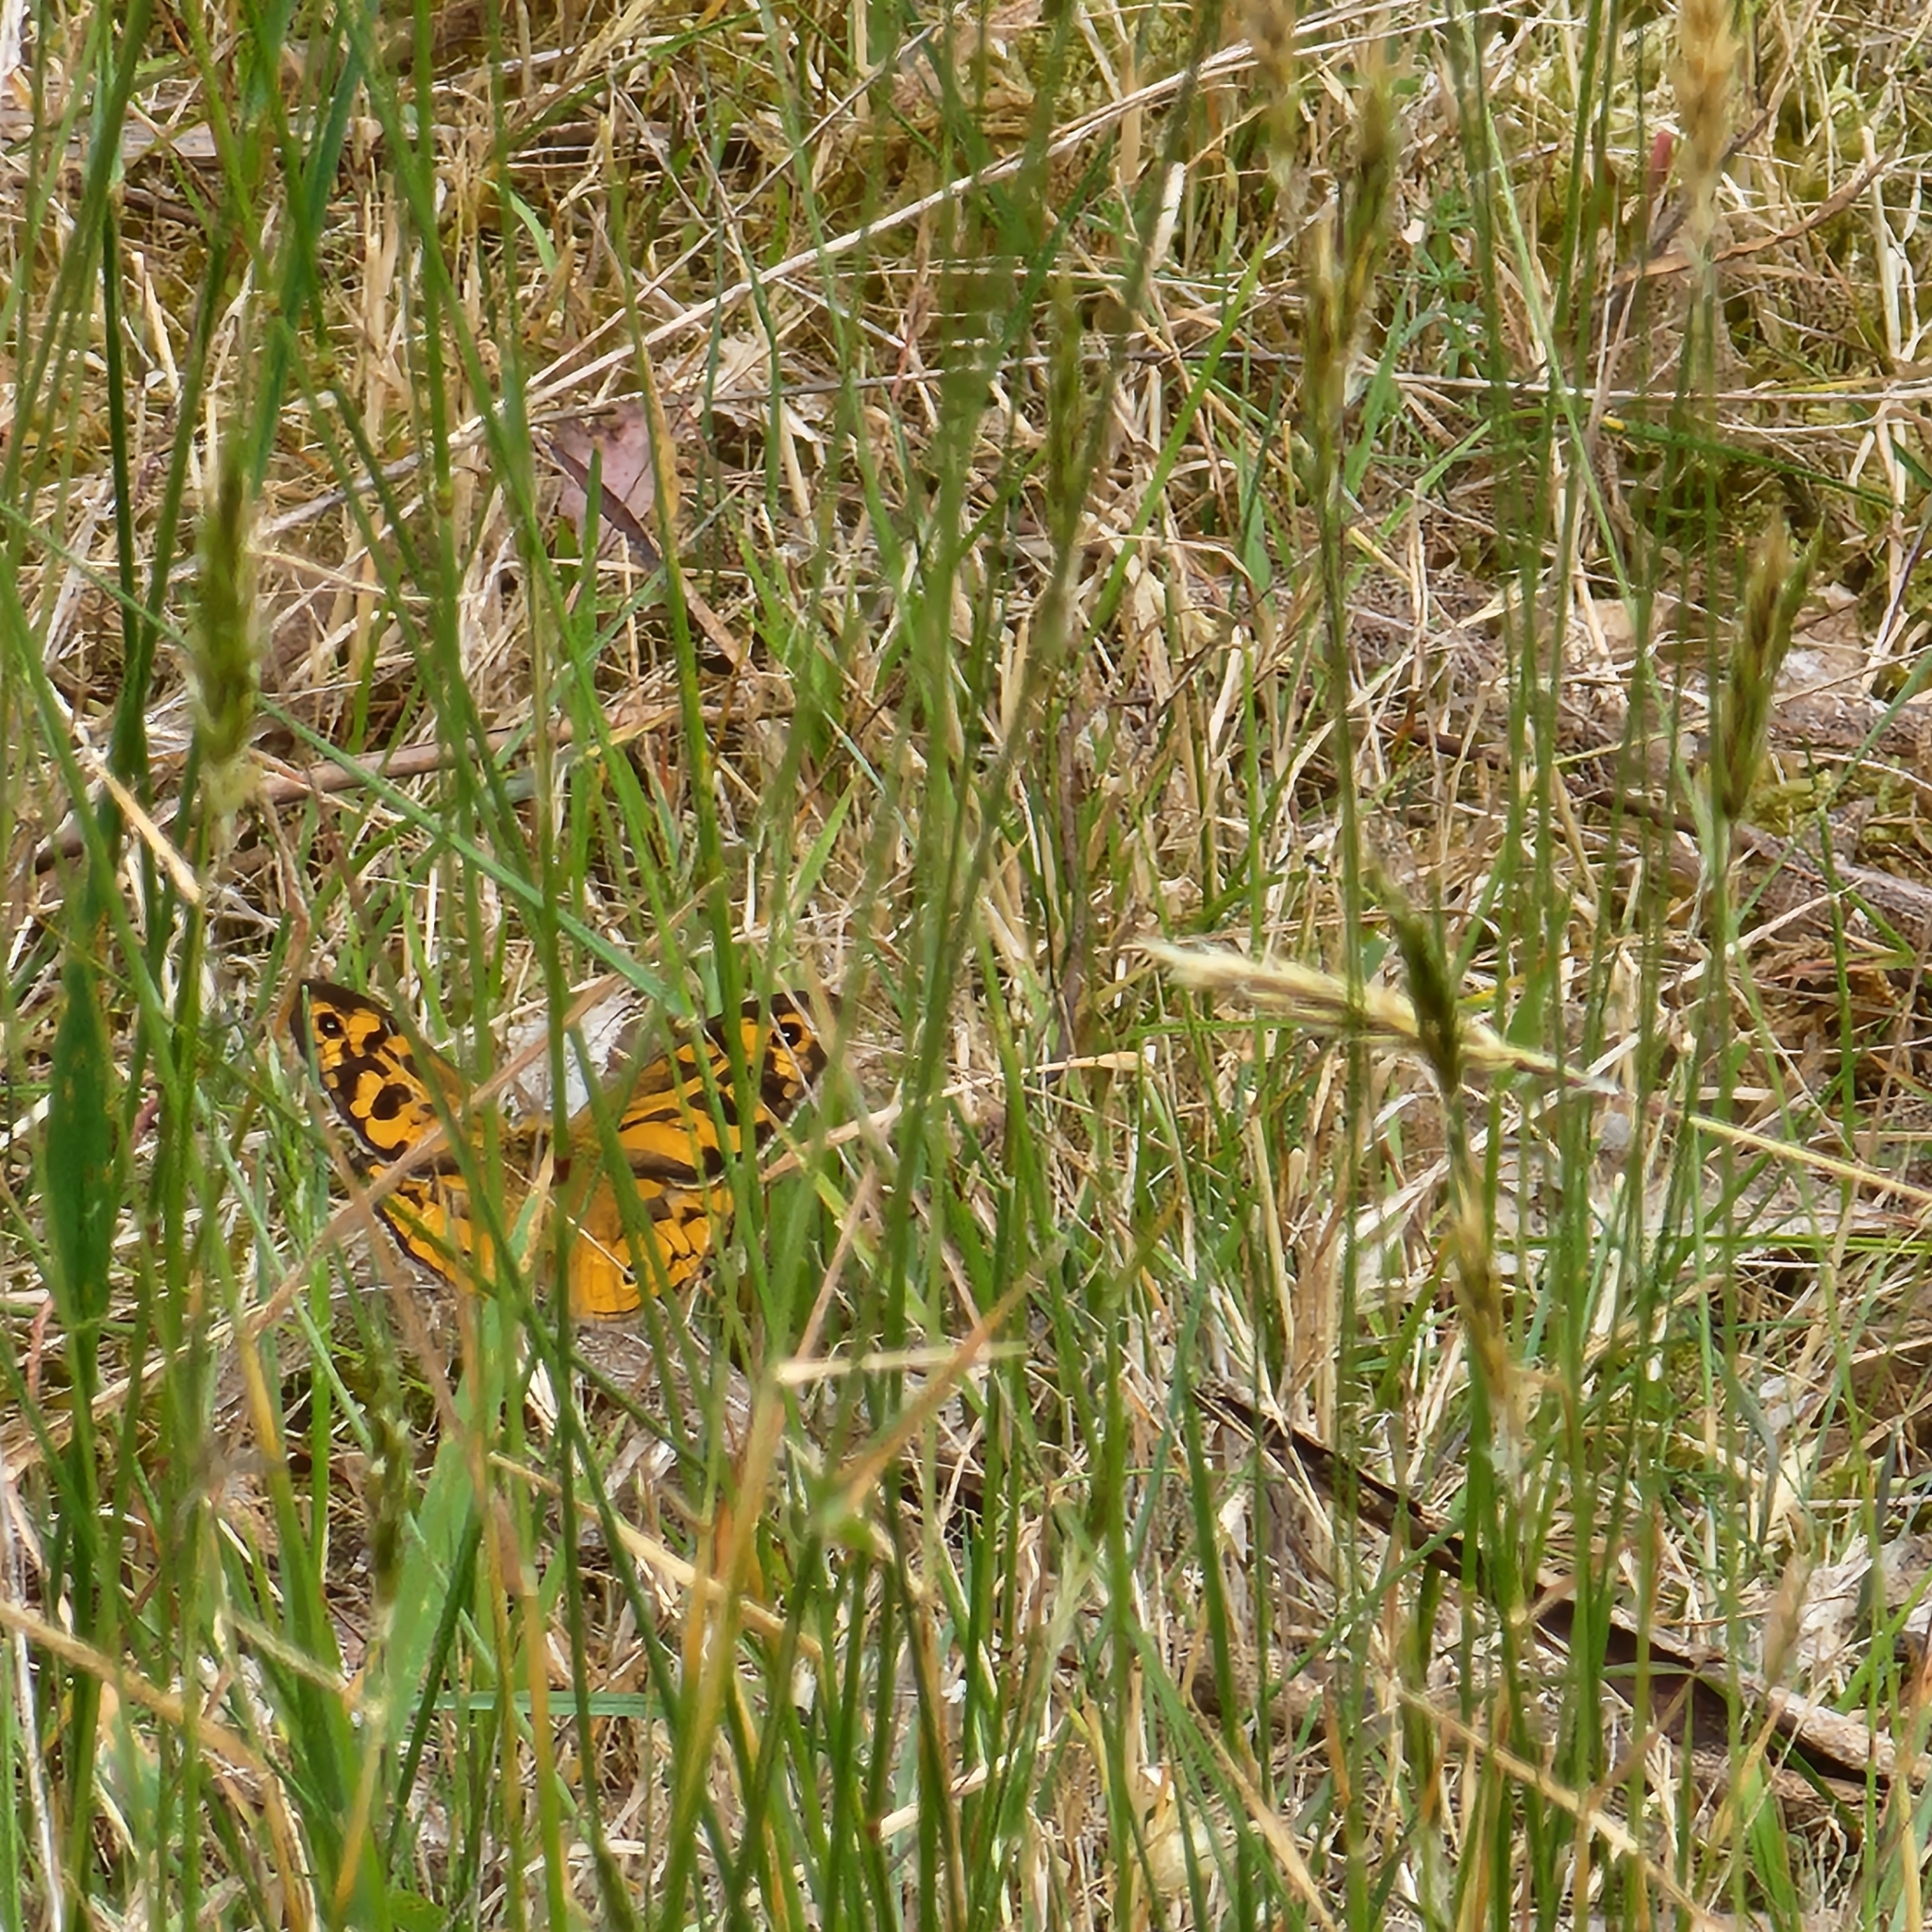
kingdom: Animalia
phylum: Arthropoda
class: Insecta
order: Lepidoptera
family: Nymphalidae
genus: Heteronympha
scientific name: Heteronympha merope
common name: Common brown
